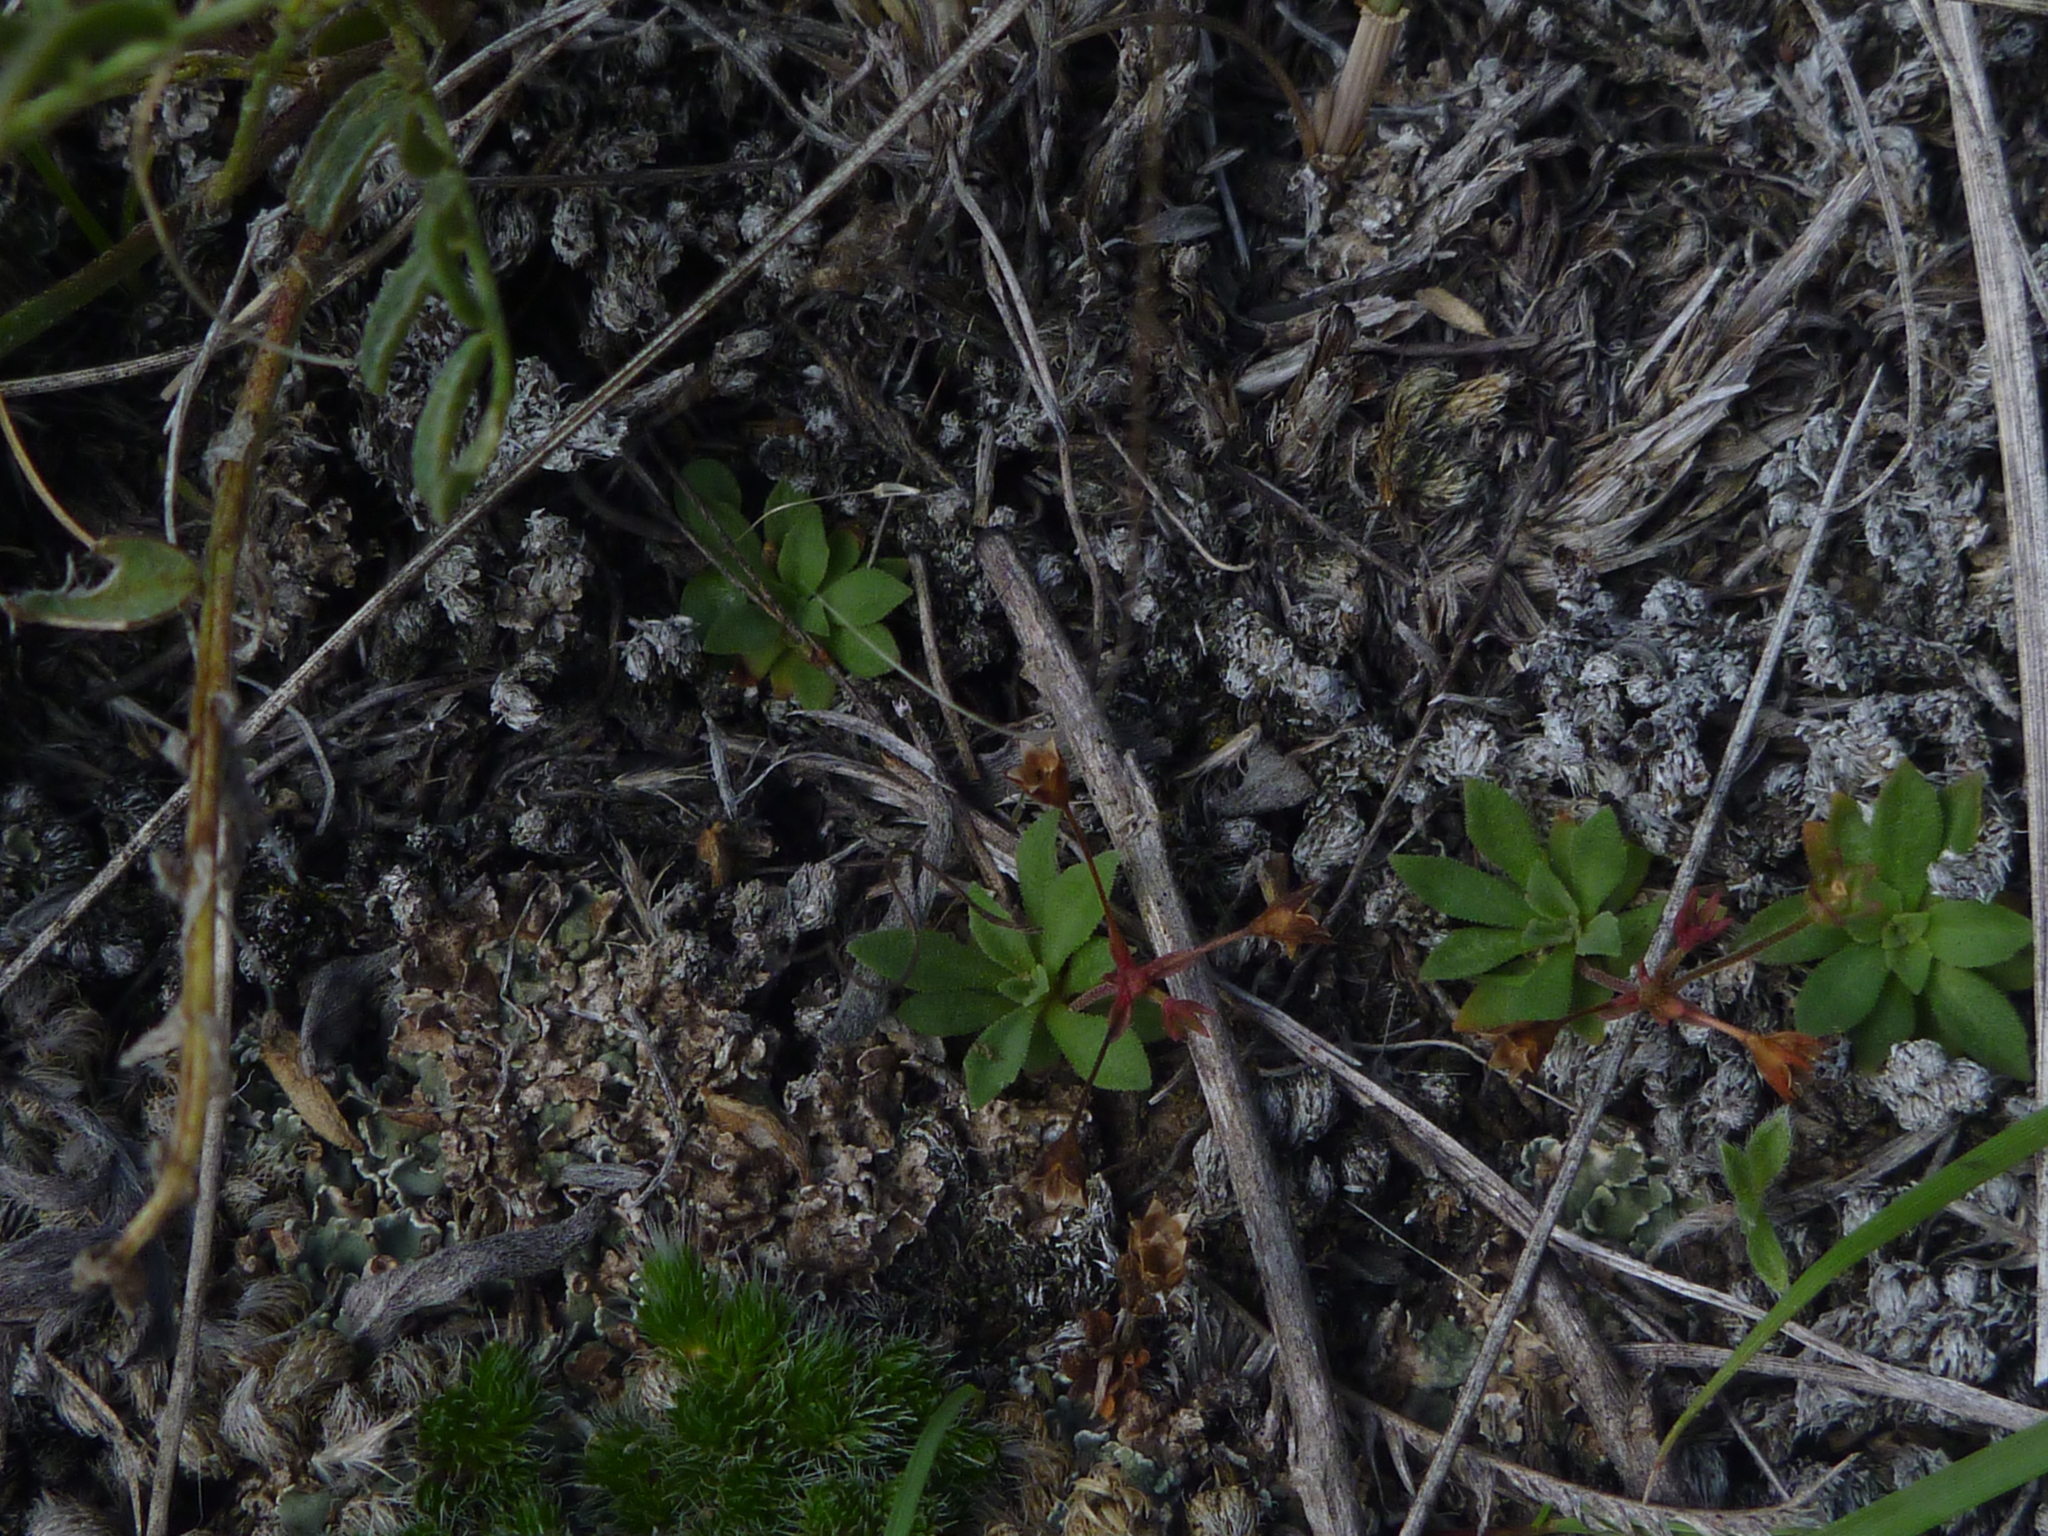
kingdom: Plantae
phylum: Tracheophyta
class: Magnoliopsida
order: Ericales
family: Primulaceae
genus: Androsace
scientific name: Androsace septentrionalis
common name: Hairy northern fairy-candelabra
